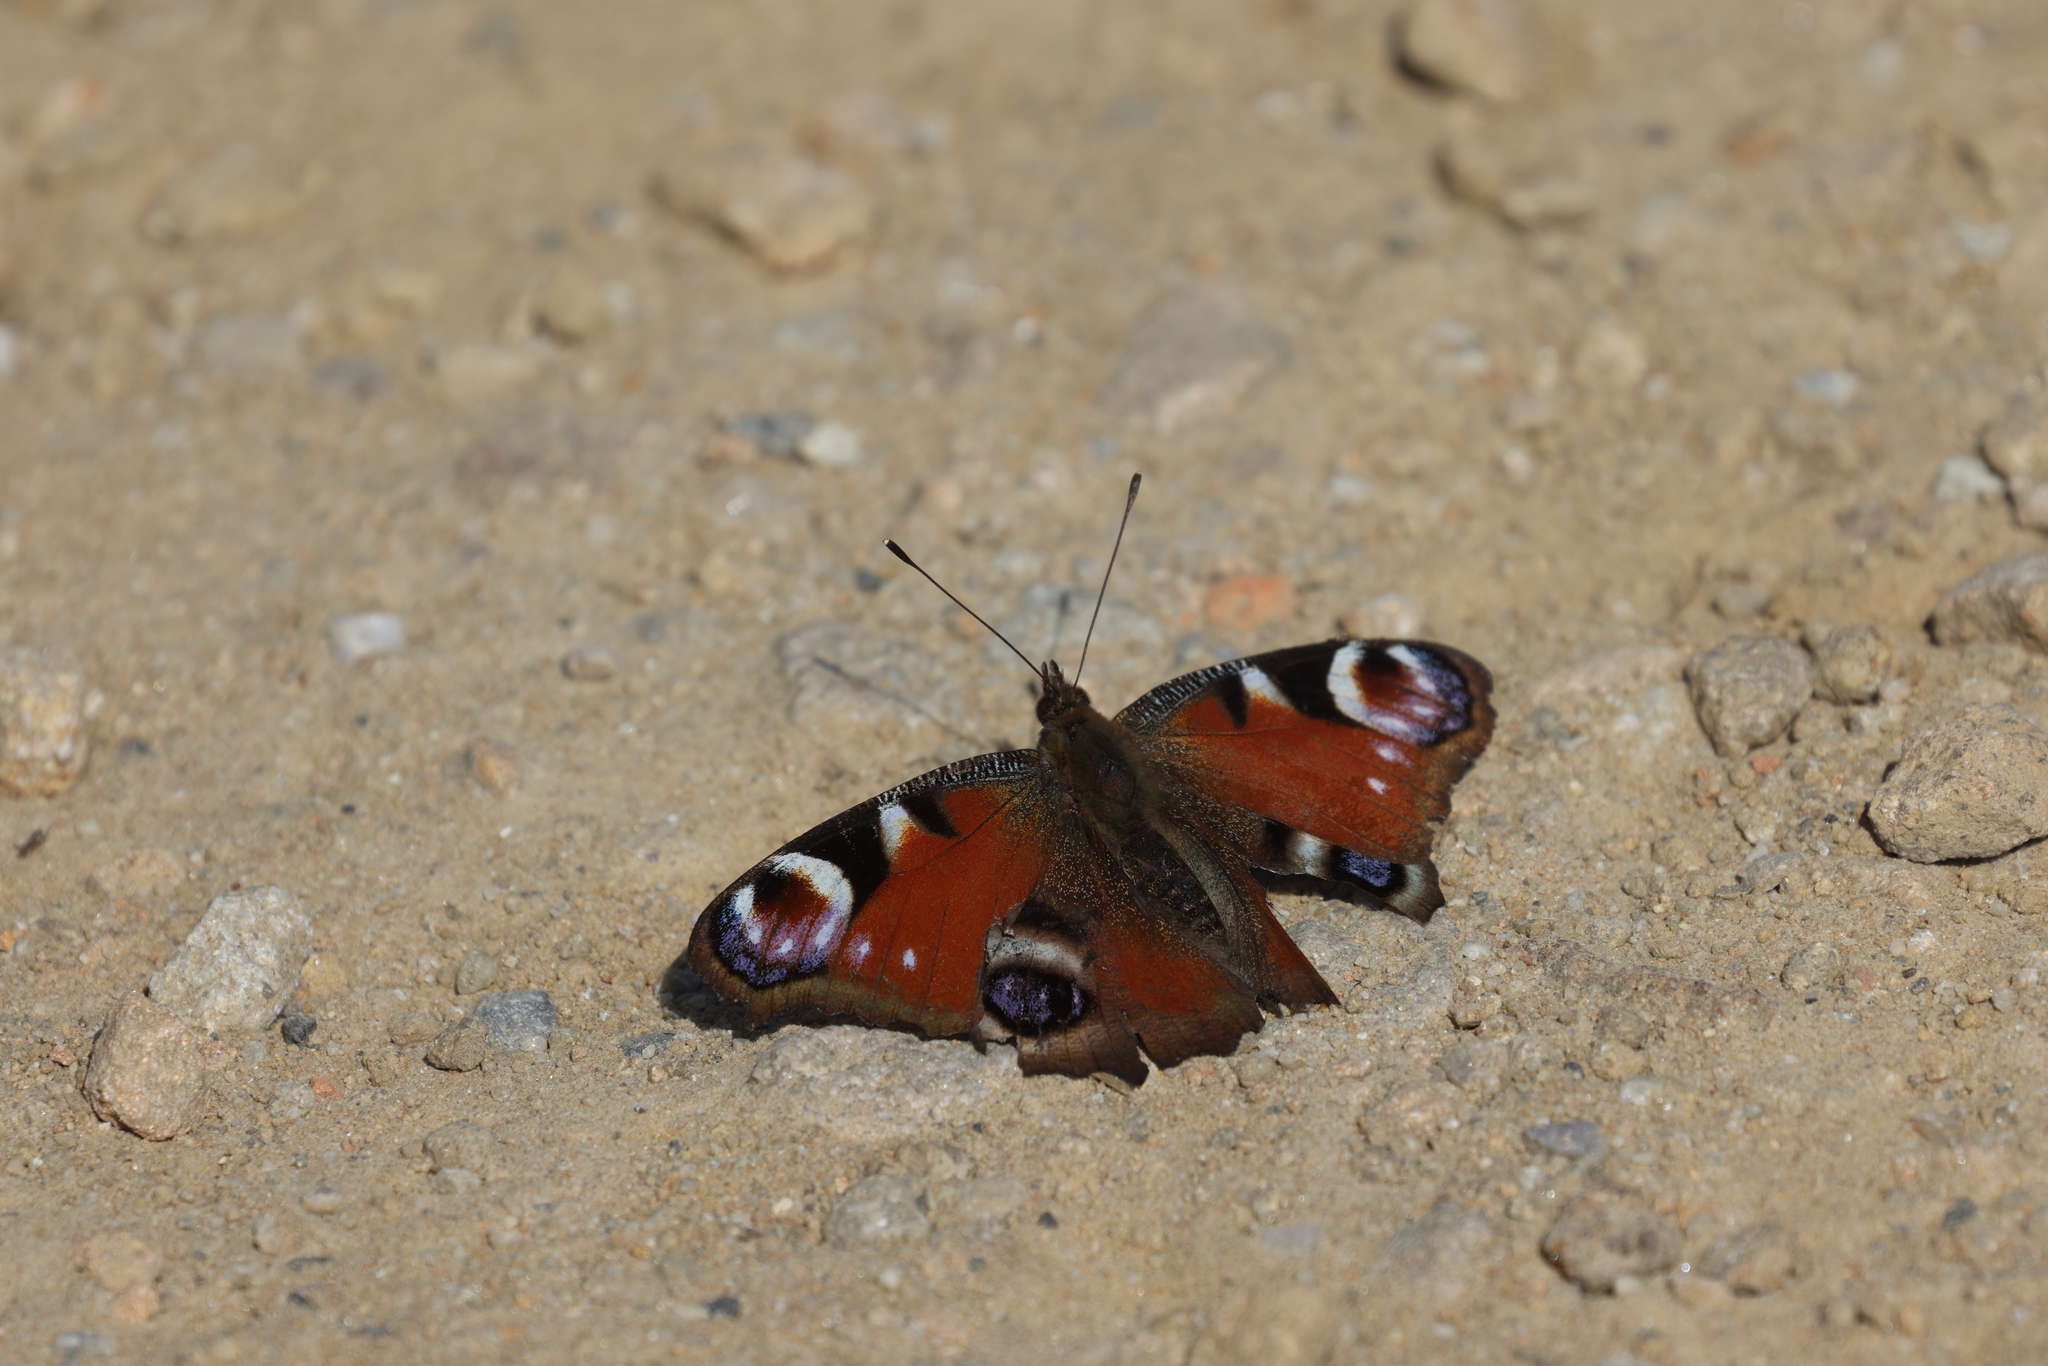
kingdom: Animalia
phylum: Arthropoda
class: Insecta
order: Lepidoptera
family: Nymphalidae
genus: Aglais
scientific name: Aglais io
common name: Peacock
